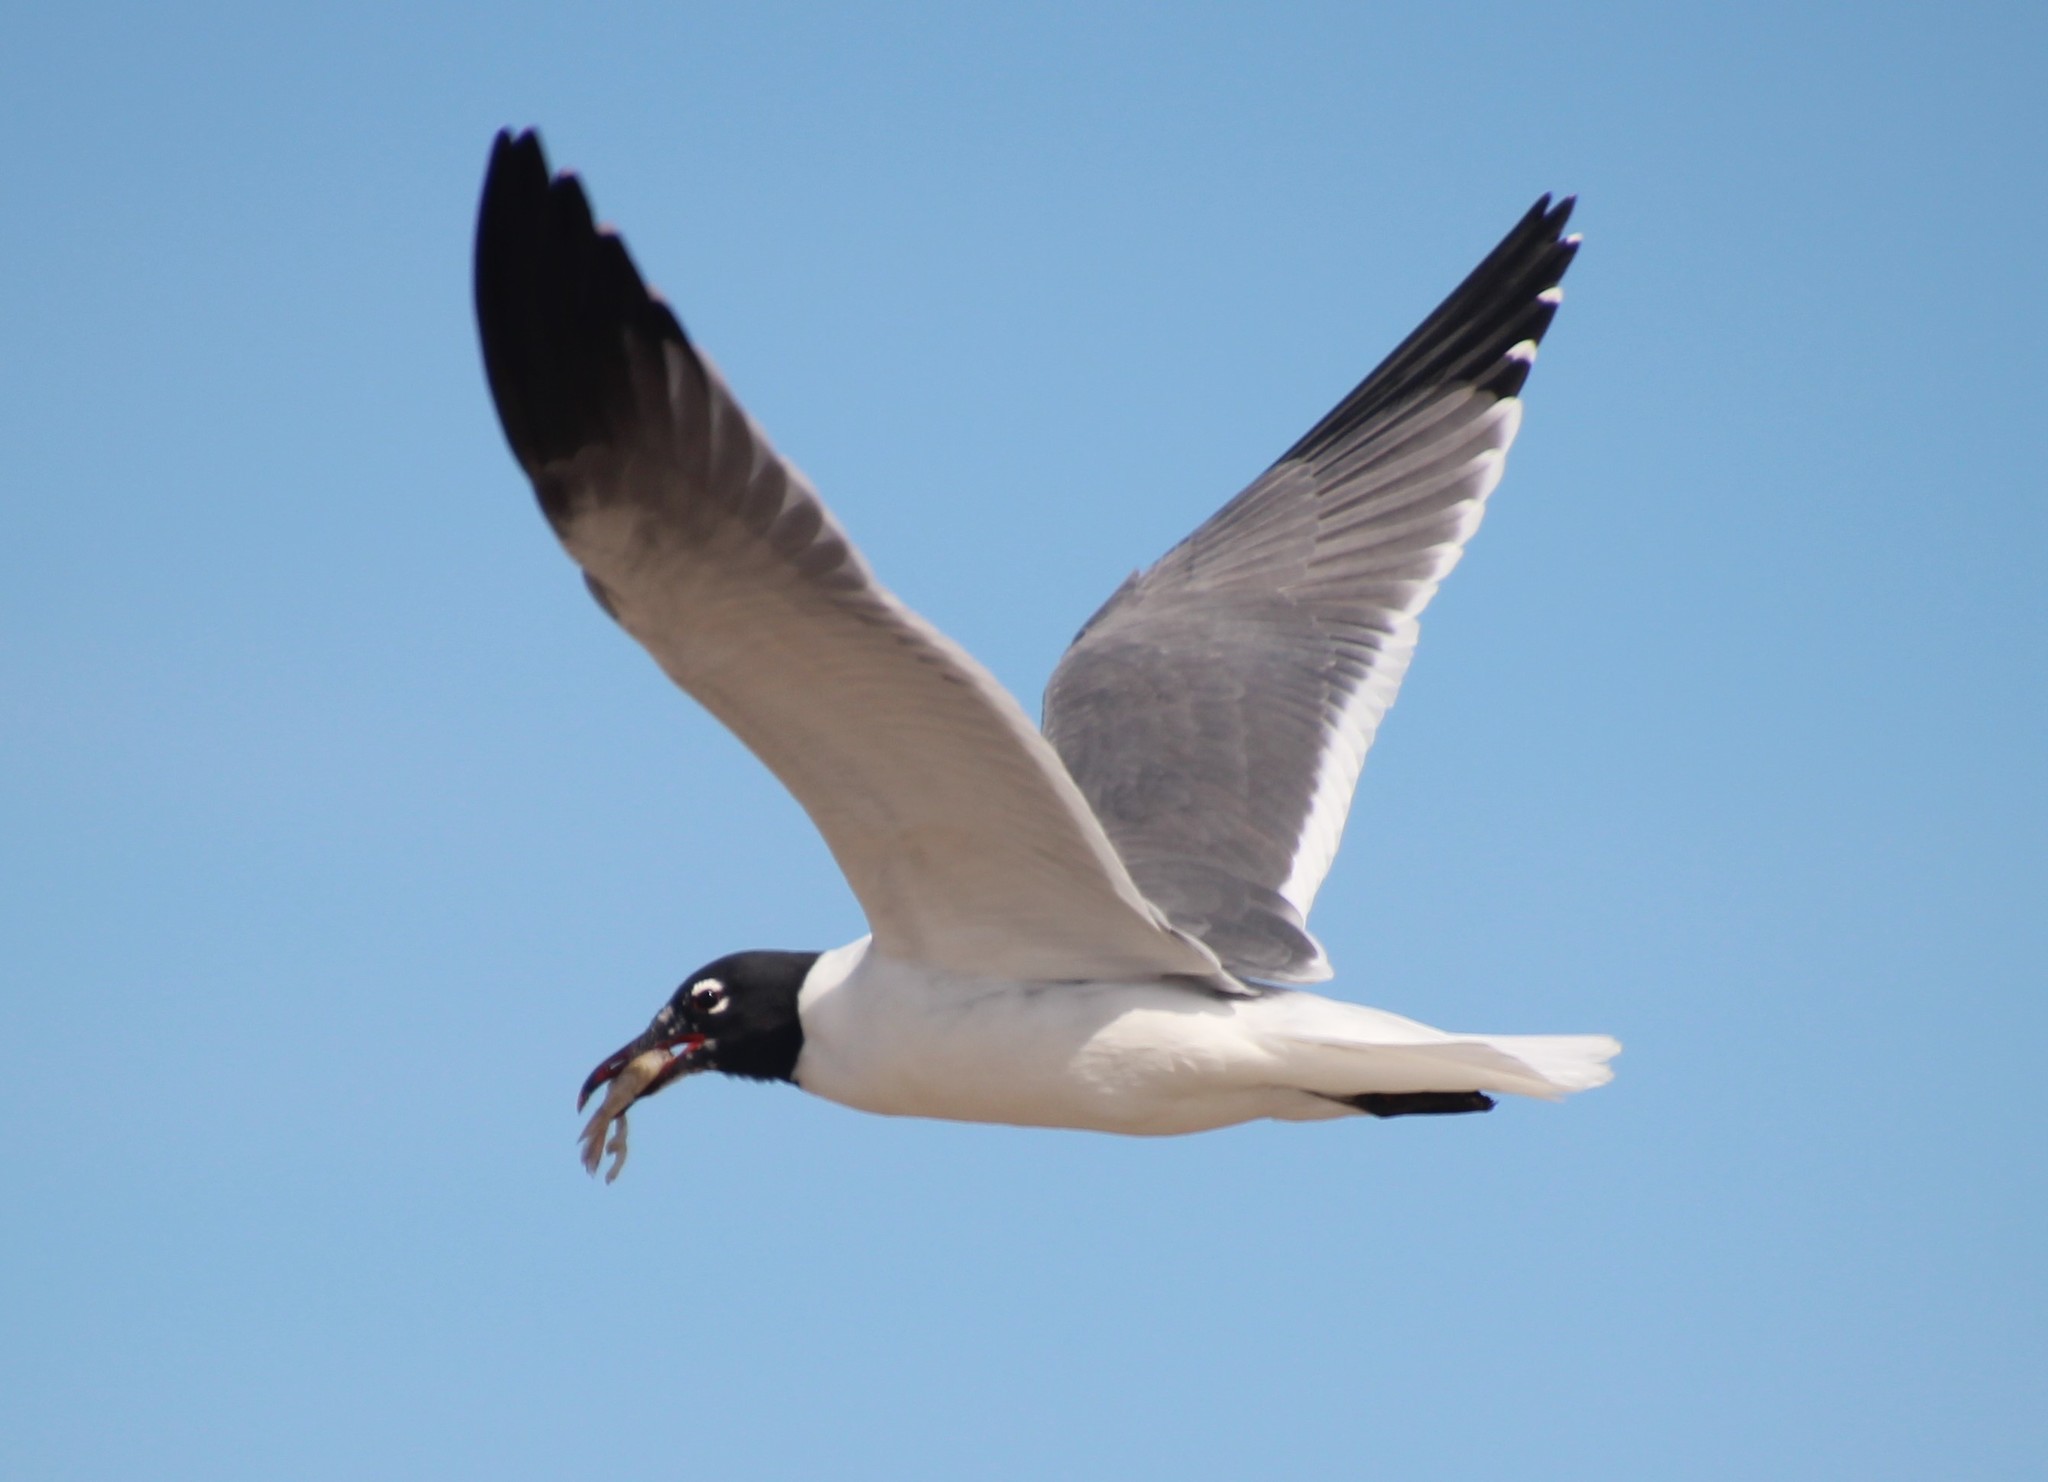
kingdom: Animalia
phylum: Chordata
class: Aves
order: Charadriiformes
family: Laridae
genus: Leucophaeus
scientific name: Leucophaeus atricilla
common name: Laughing gull
